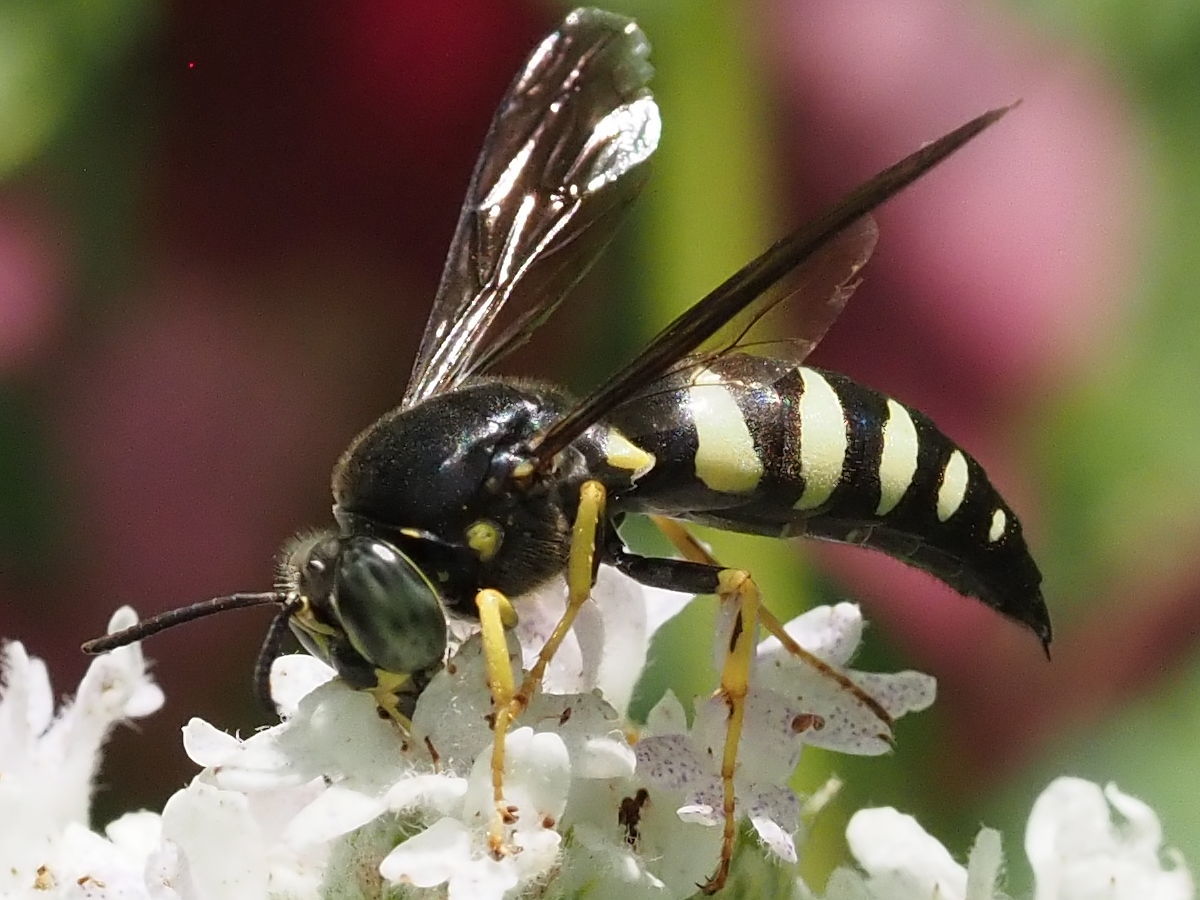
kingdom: Animalia
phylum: Arthropoda
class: Insecta
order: Hymenoptera
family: Crabronidae
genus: Bicyrtes
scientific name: Bicyrtes quadrifasciatus
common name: Four-banded stink bug hunter wasp
